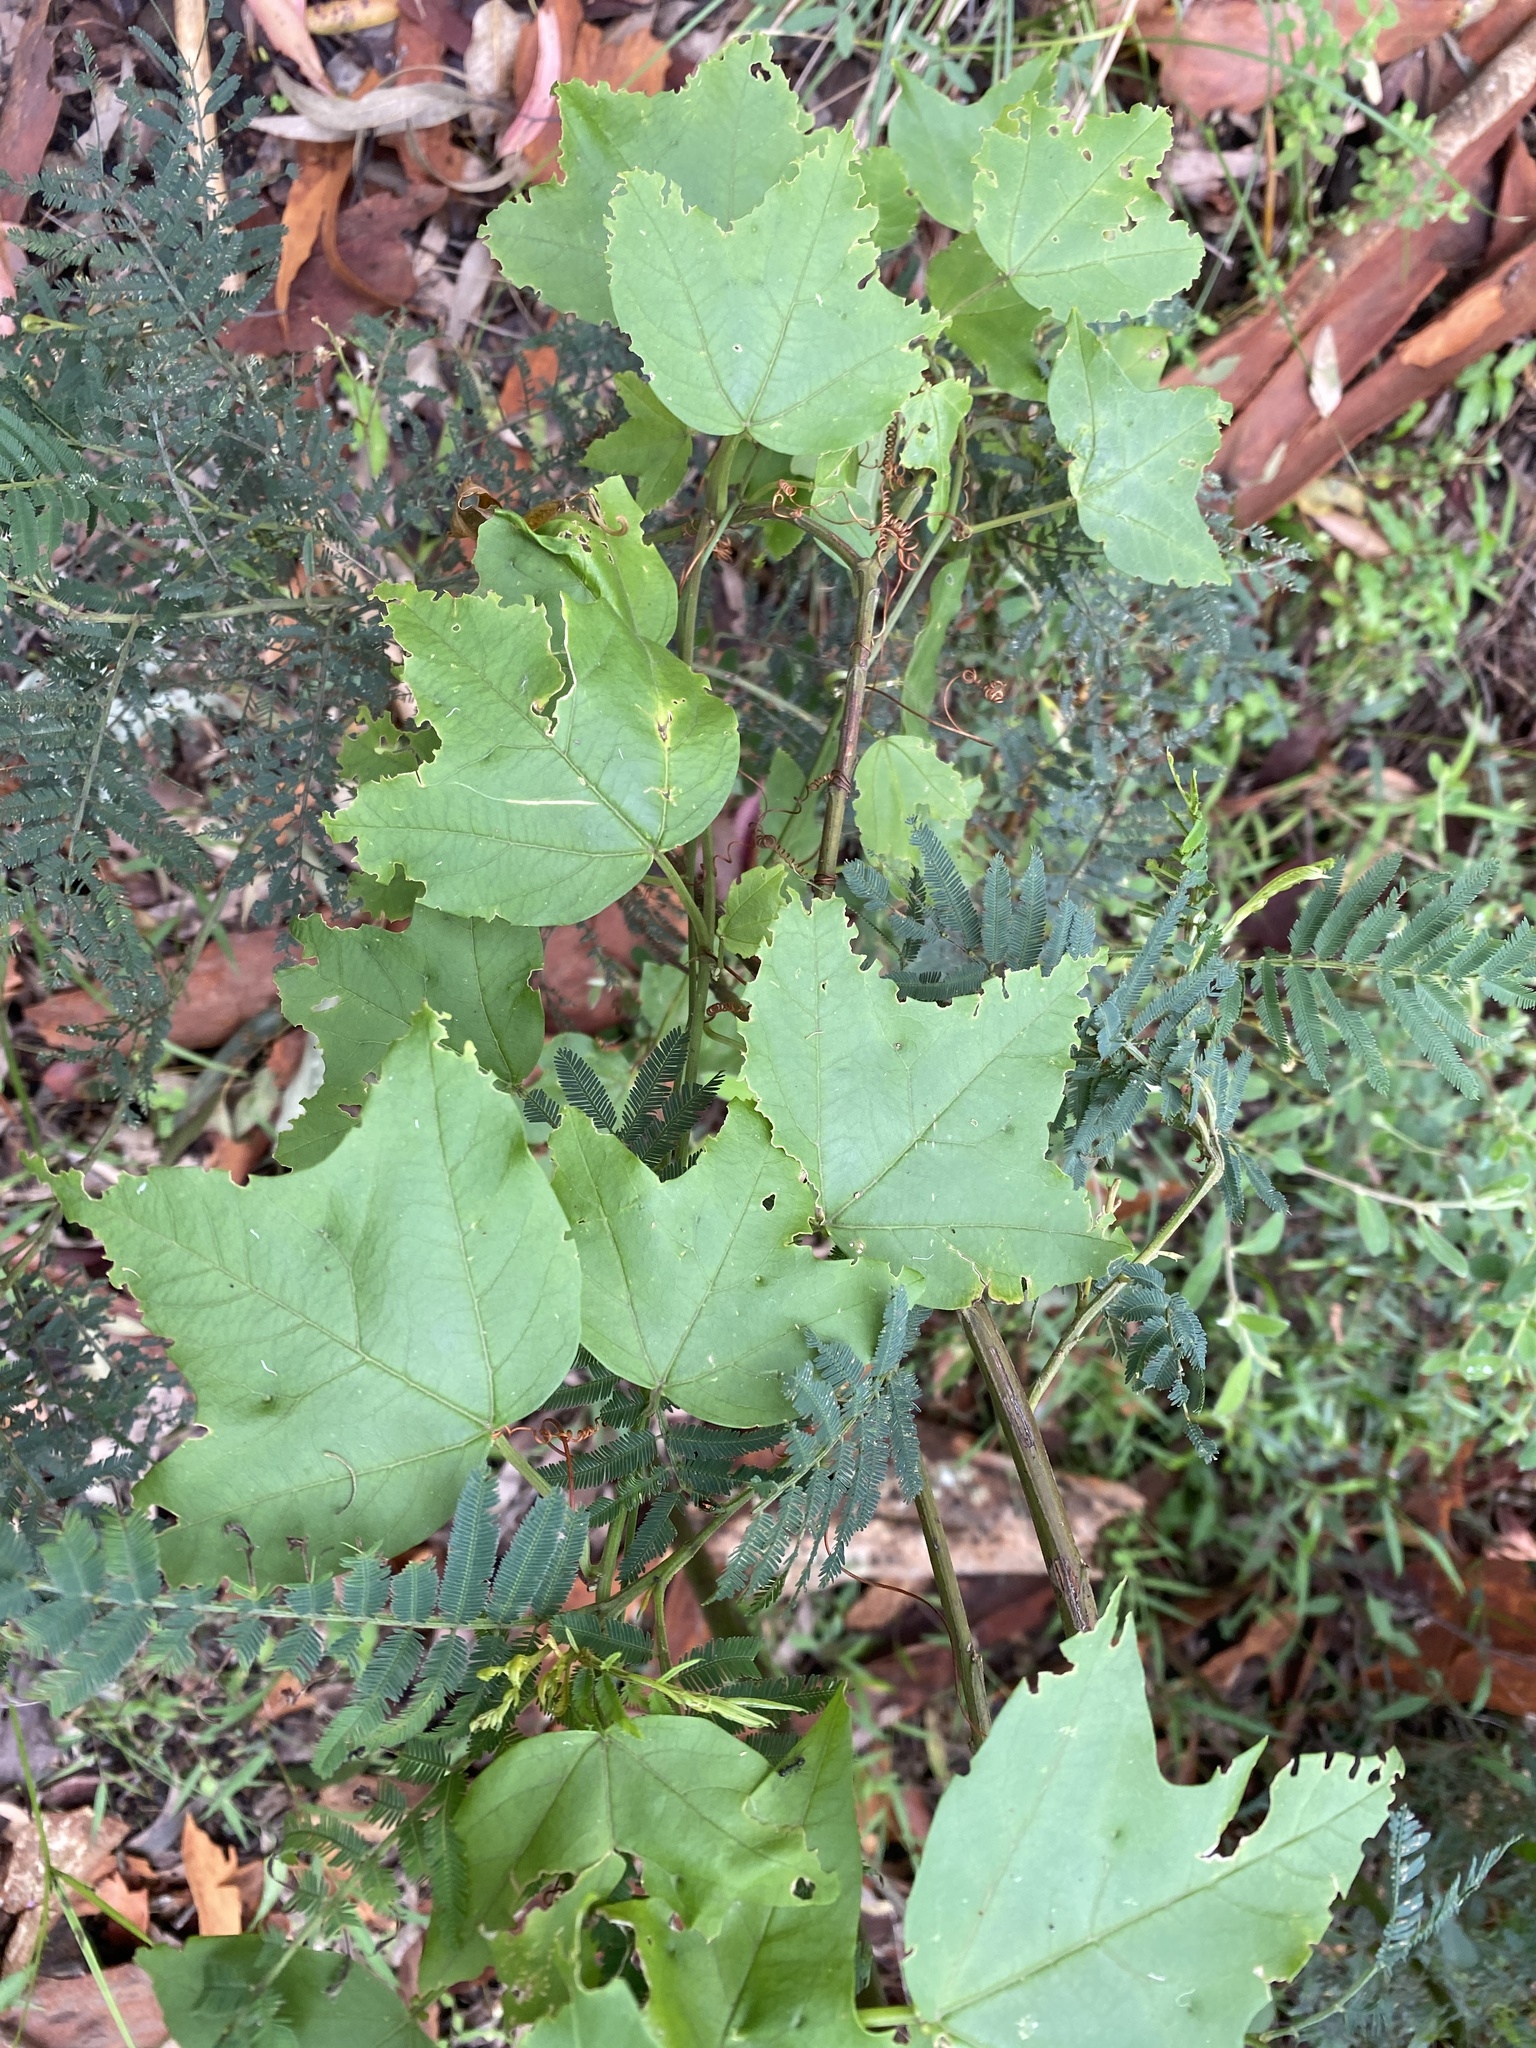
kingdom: Plantae
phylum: Tracheophyta
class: Magnoliopsida
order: Malpighiales
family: Passifloraceae
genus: Passiflora
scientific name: Passiflora herbertiana
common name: Yellow passionflower
